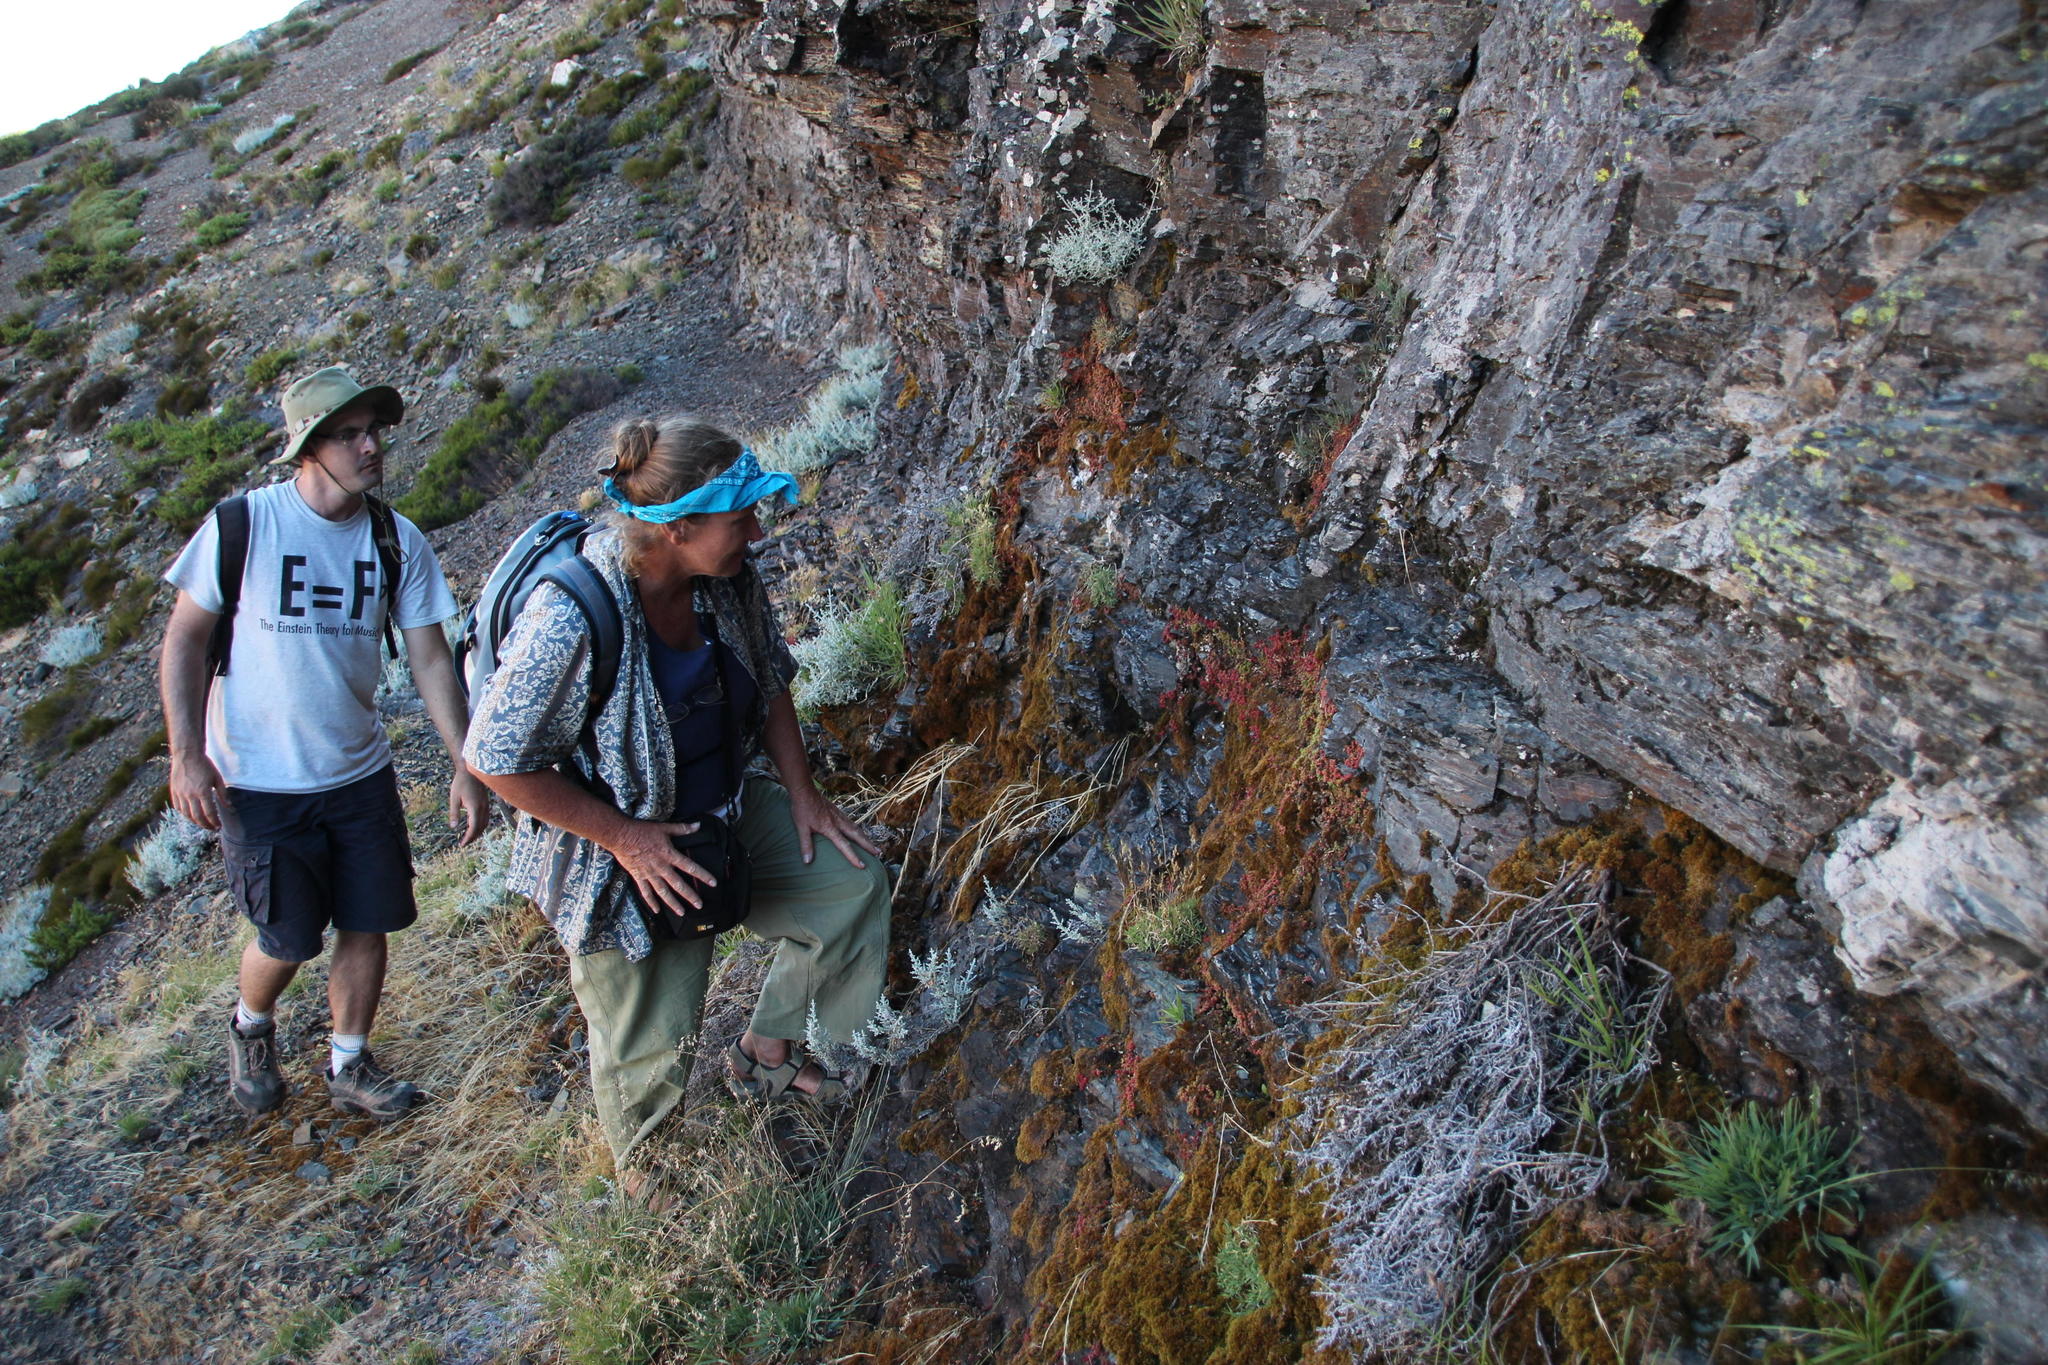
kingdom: Plantae
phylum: Tracheophyta
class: Magnoliopsida
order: Saxifragales
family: Crassulaceae
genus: Crassula
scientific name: Crassula papillosa
